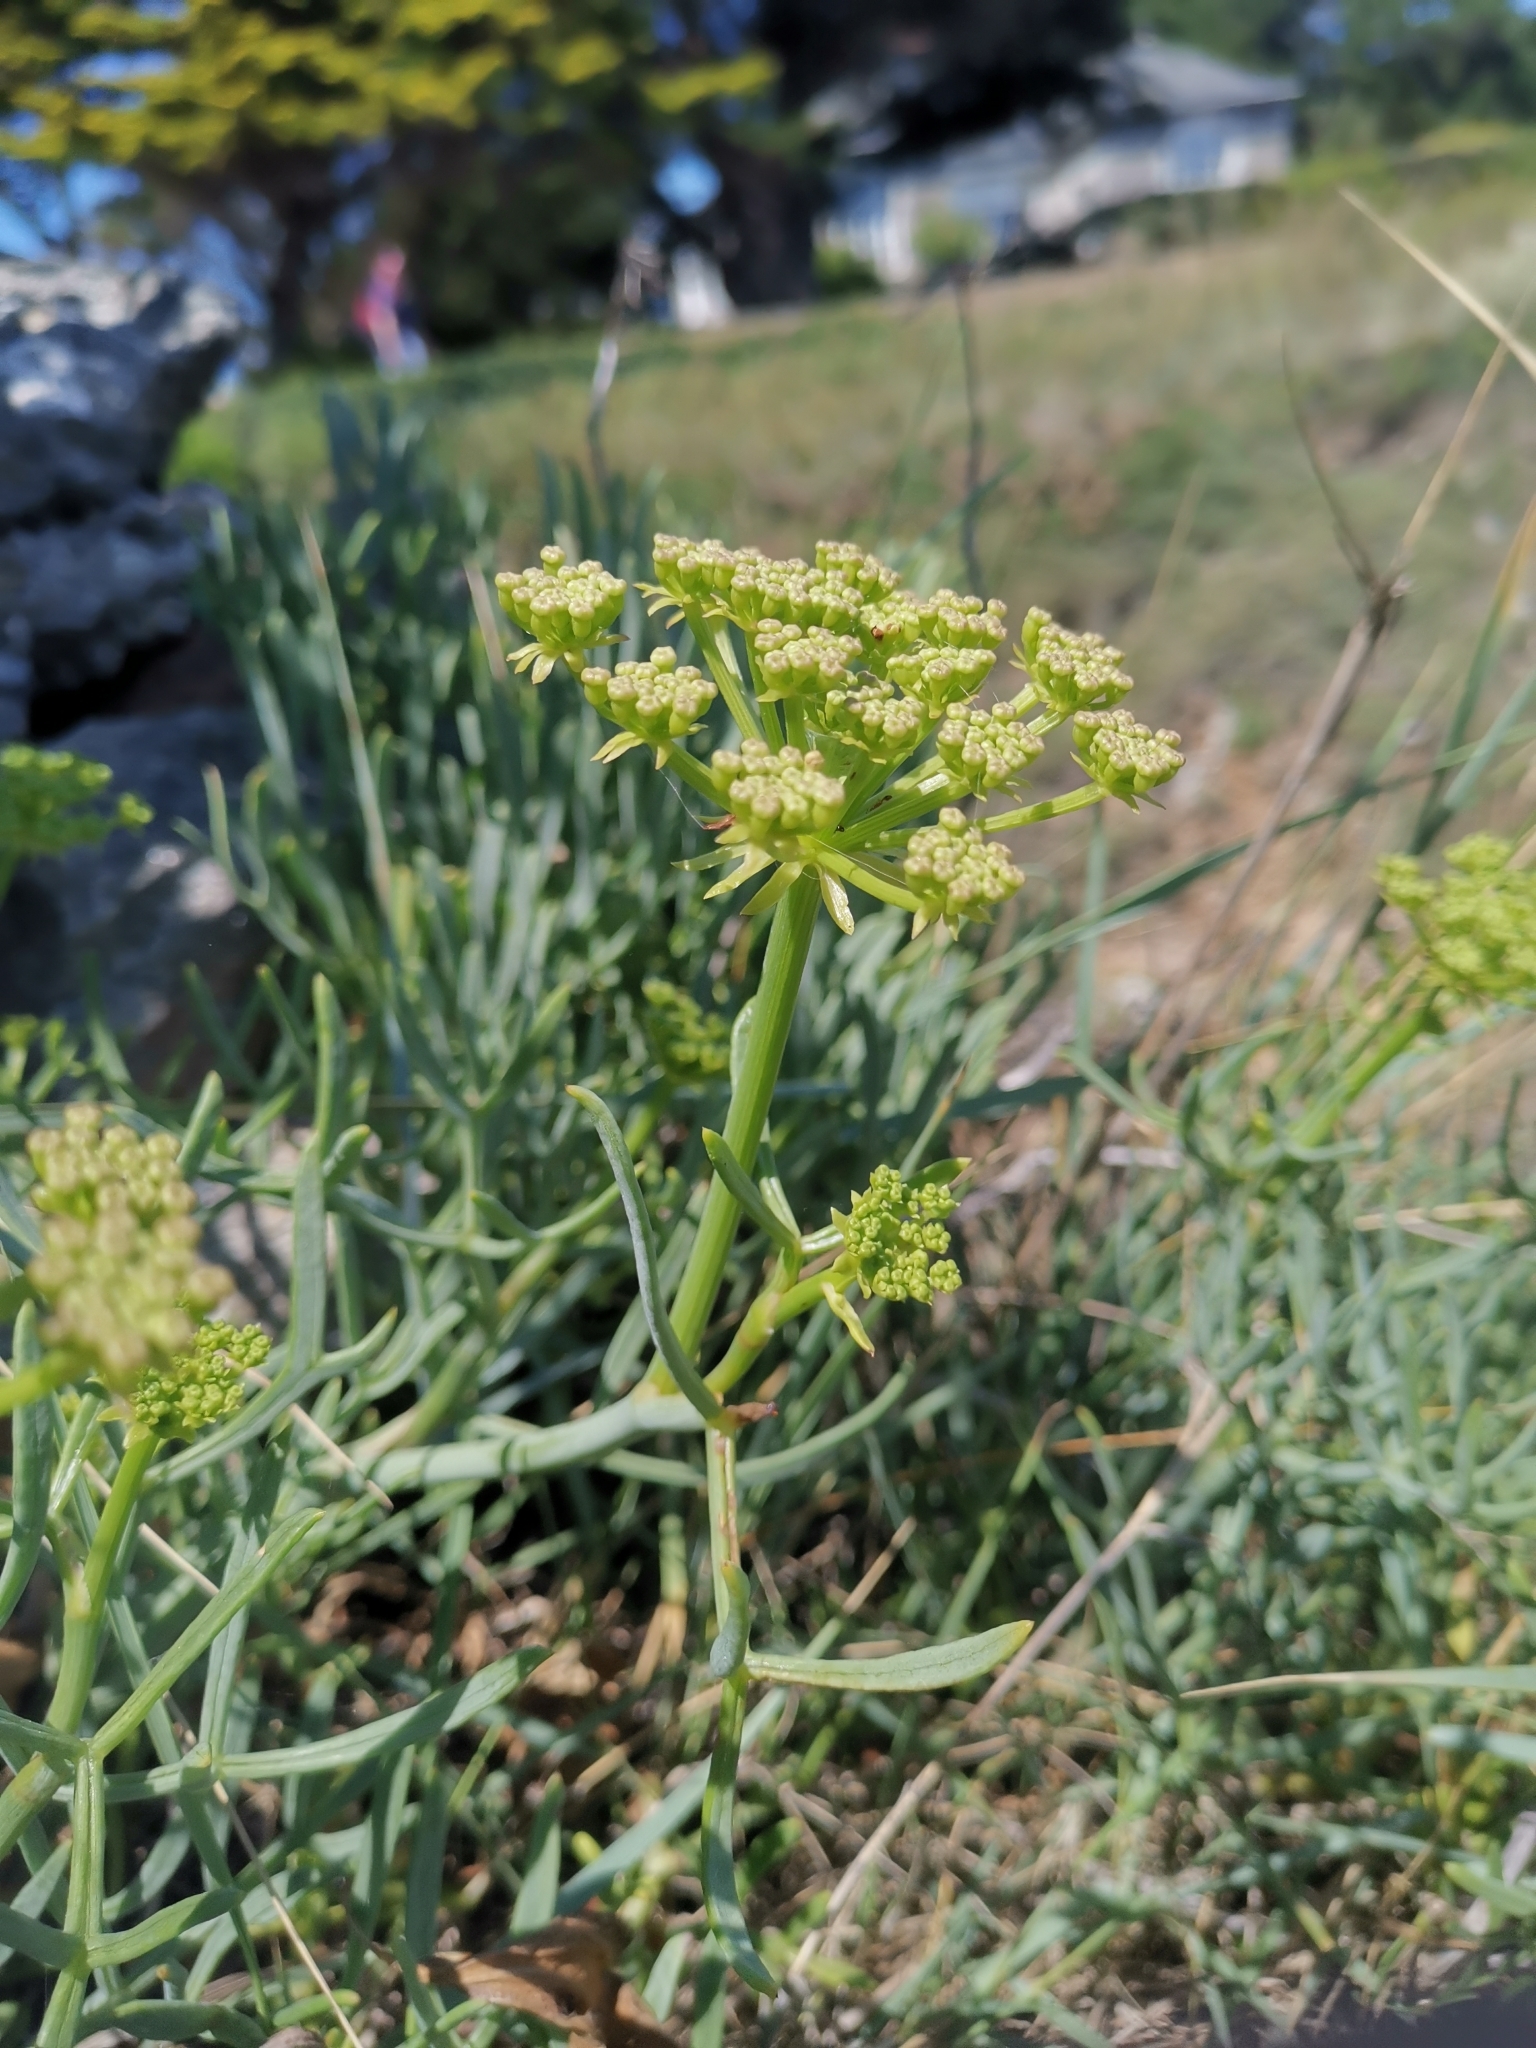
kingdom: Plantae
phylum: Tracheophyta
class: Magnoliopsida
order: Apiales
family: Apiaceae
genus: Crithmum
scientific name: Crithmum maritimum
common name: Rock samphire
